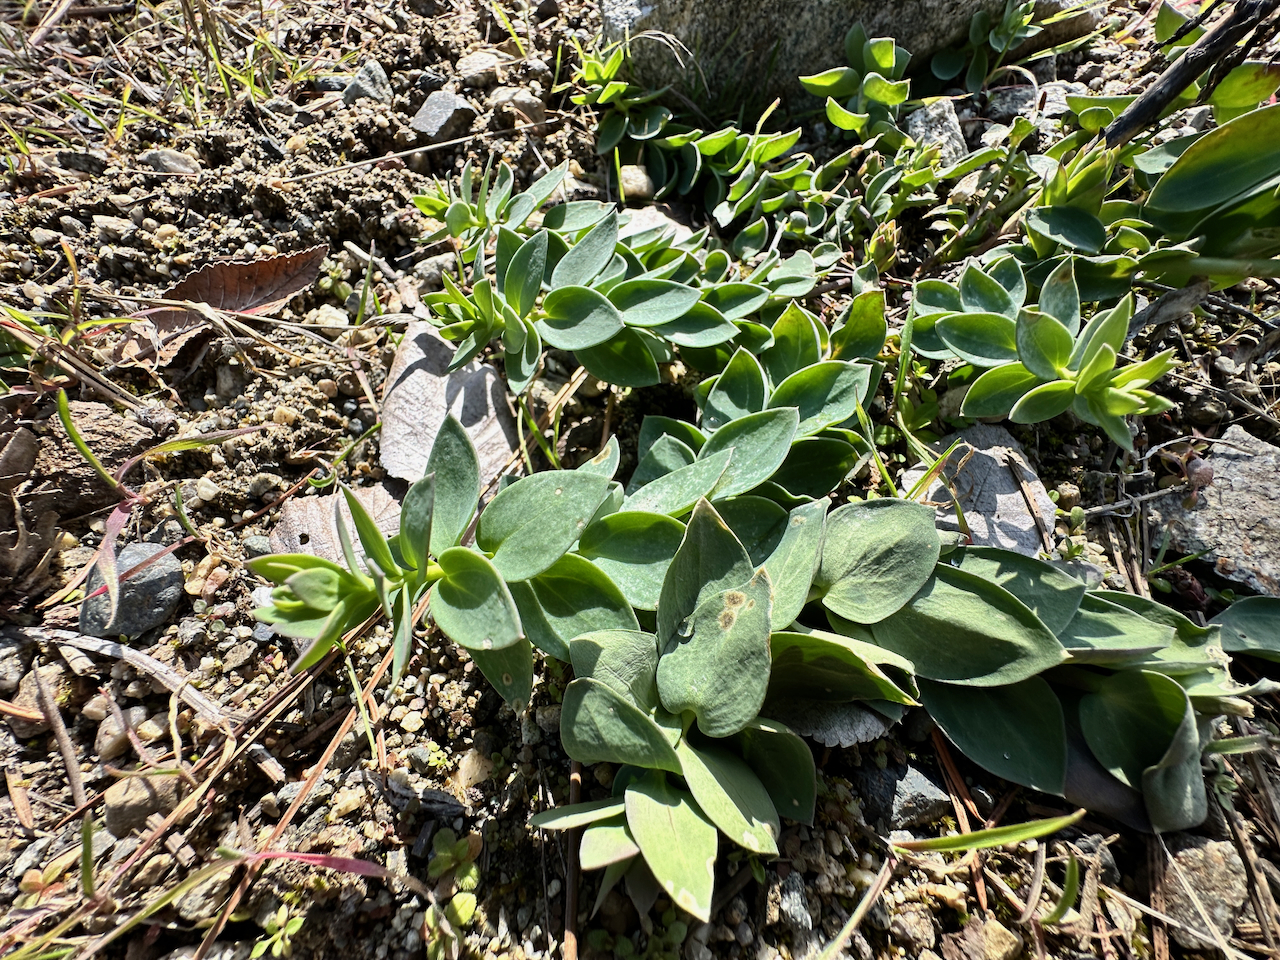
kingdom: Plantae
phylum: Tracheophyta
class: Magnoliopsida
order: Lamiales
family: Plantaginaceae
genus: Linaria
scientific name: Linaria dalmatica
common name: Dalmatian toadflax
